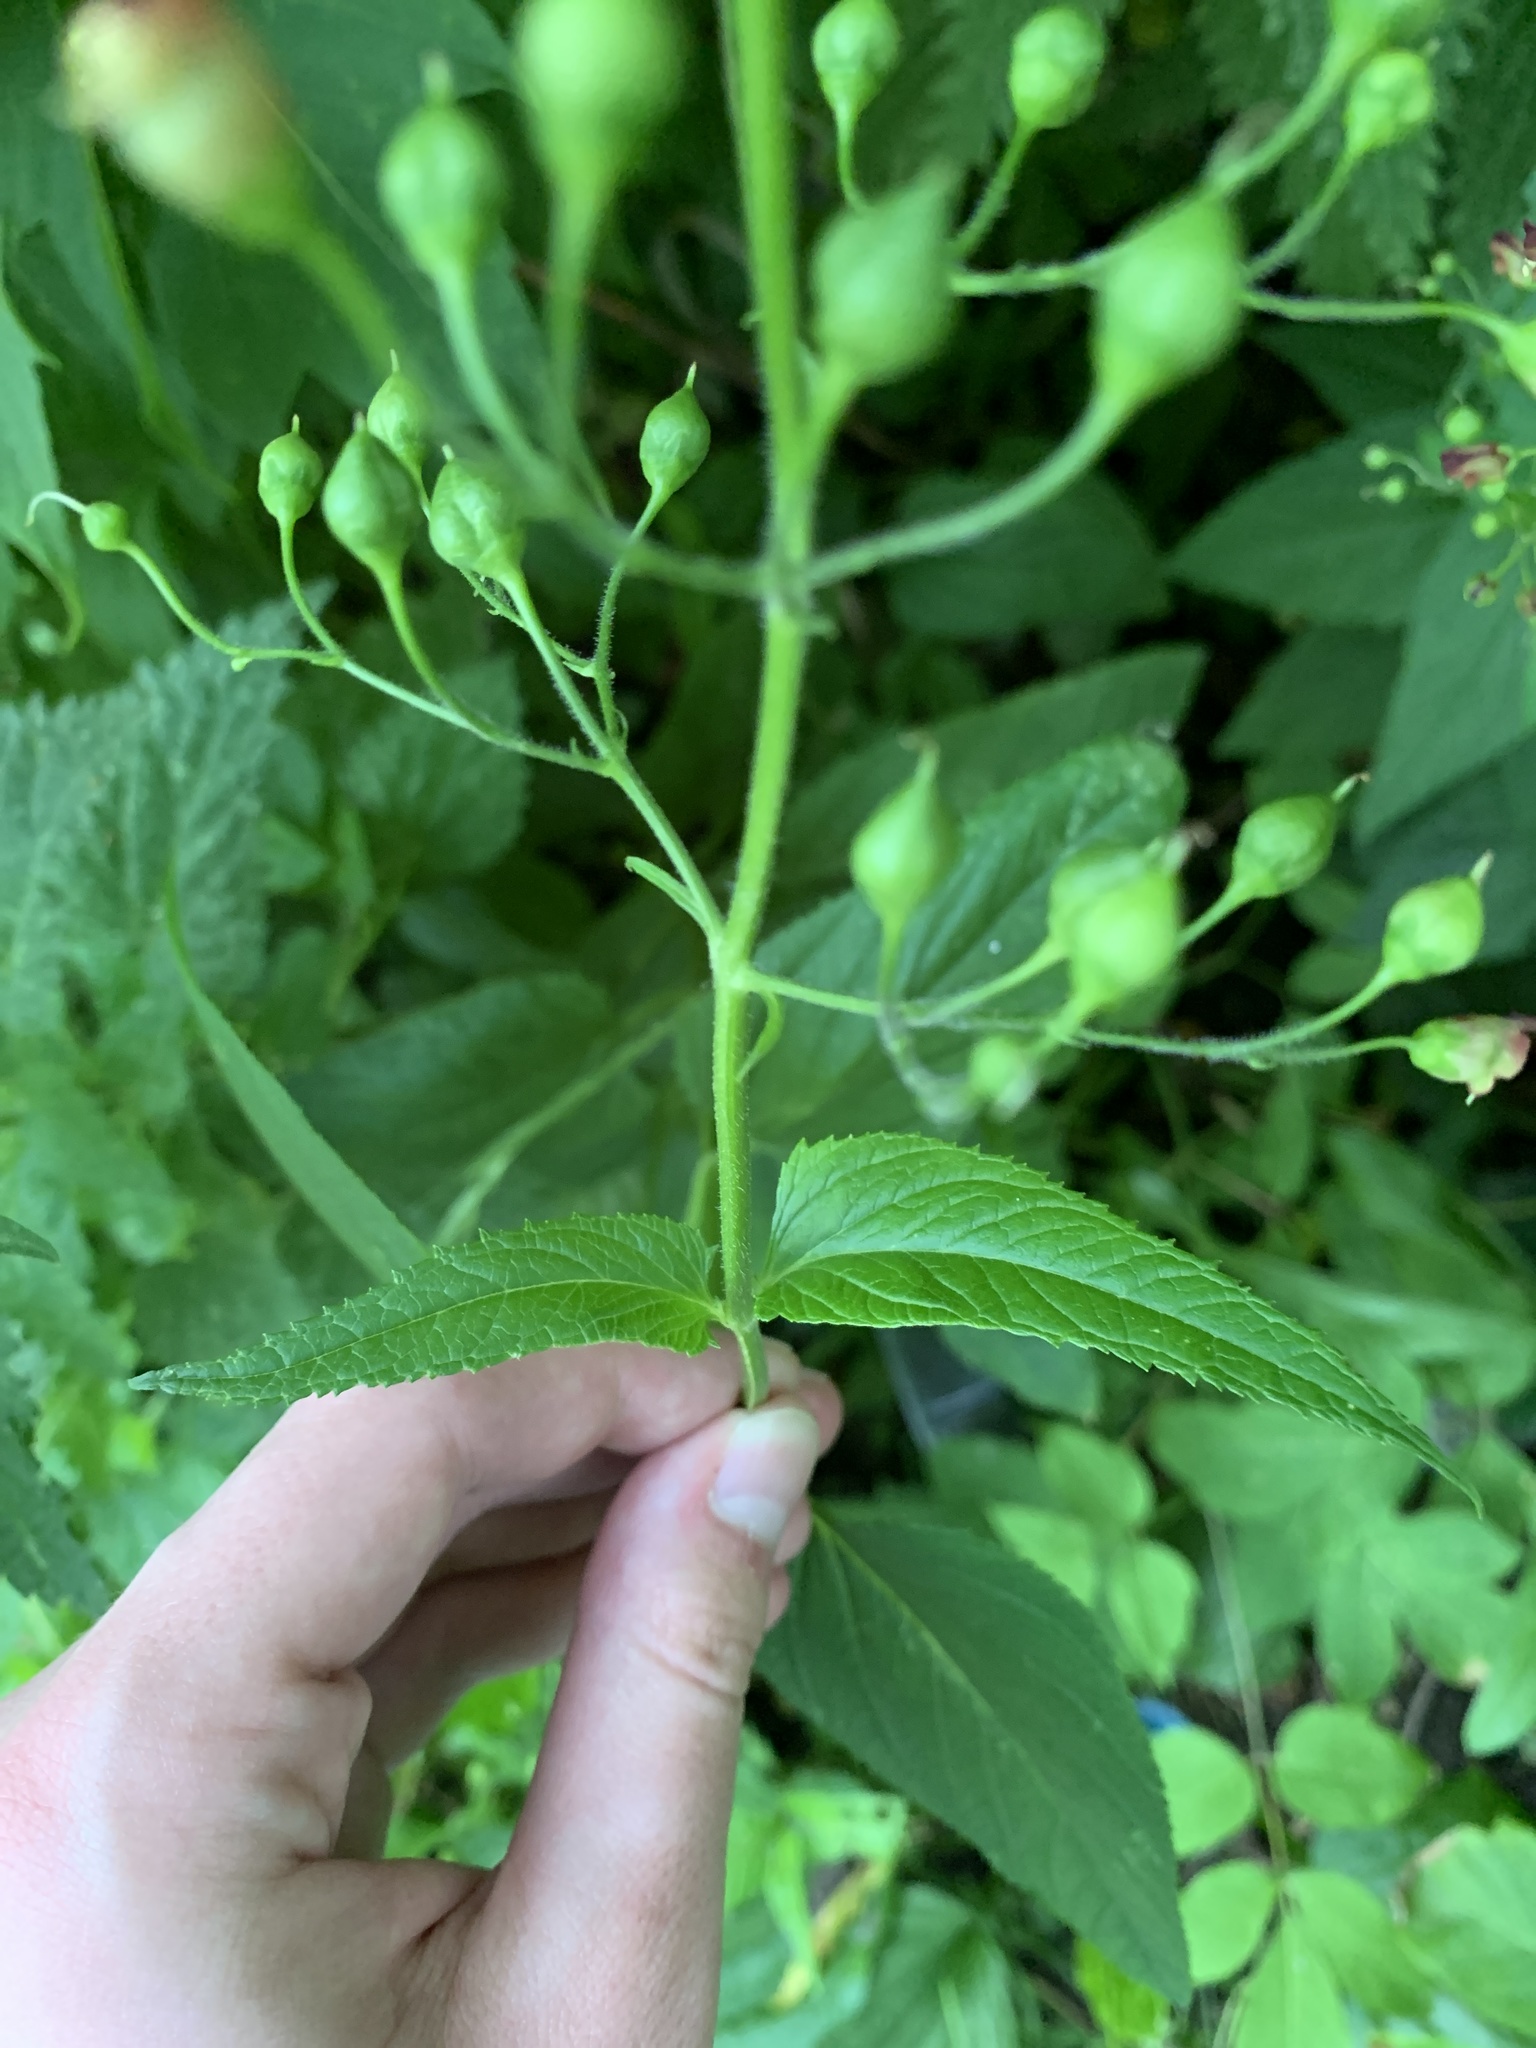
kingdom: Plantae
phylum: Tracheophyta
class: Magnoliopsida
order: Lamiales
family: Scrophulariaceae
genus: Scrophularia
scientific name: Scrophularia nodosa
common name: Common figwort
